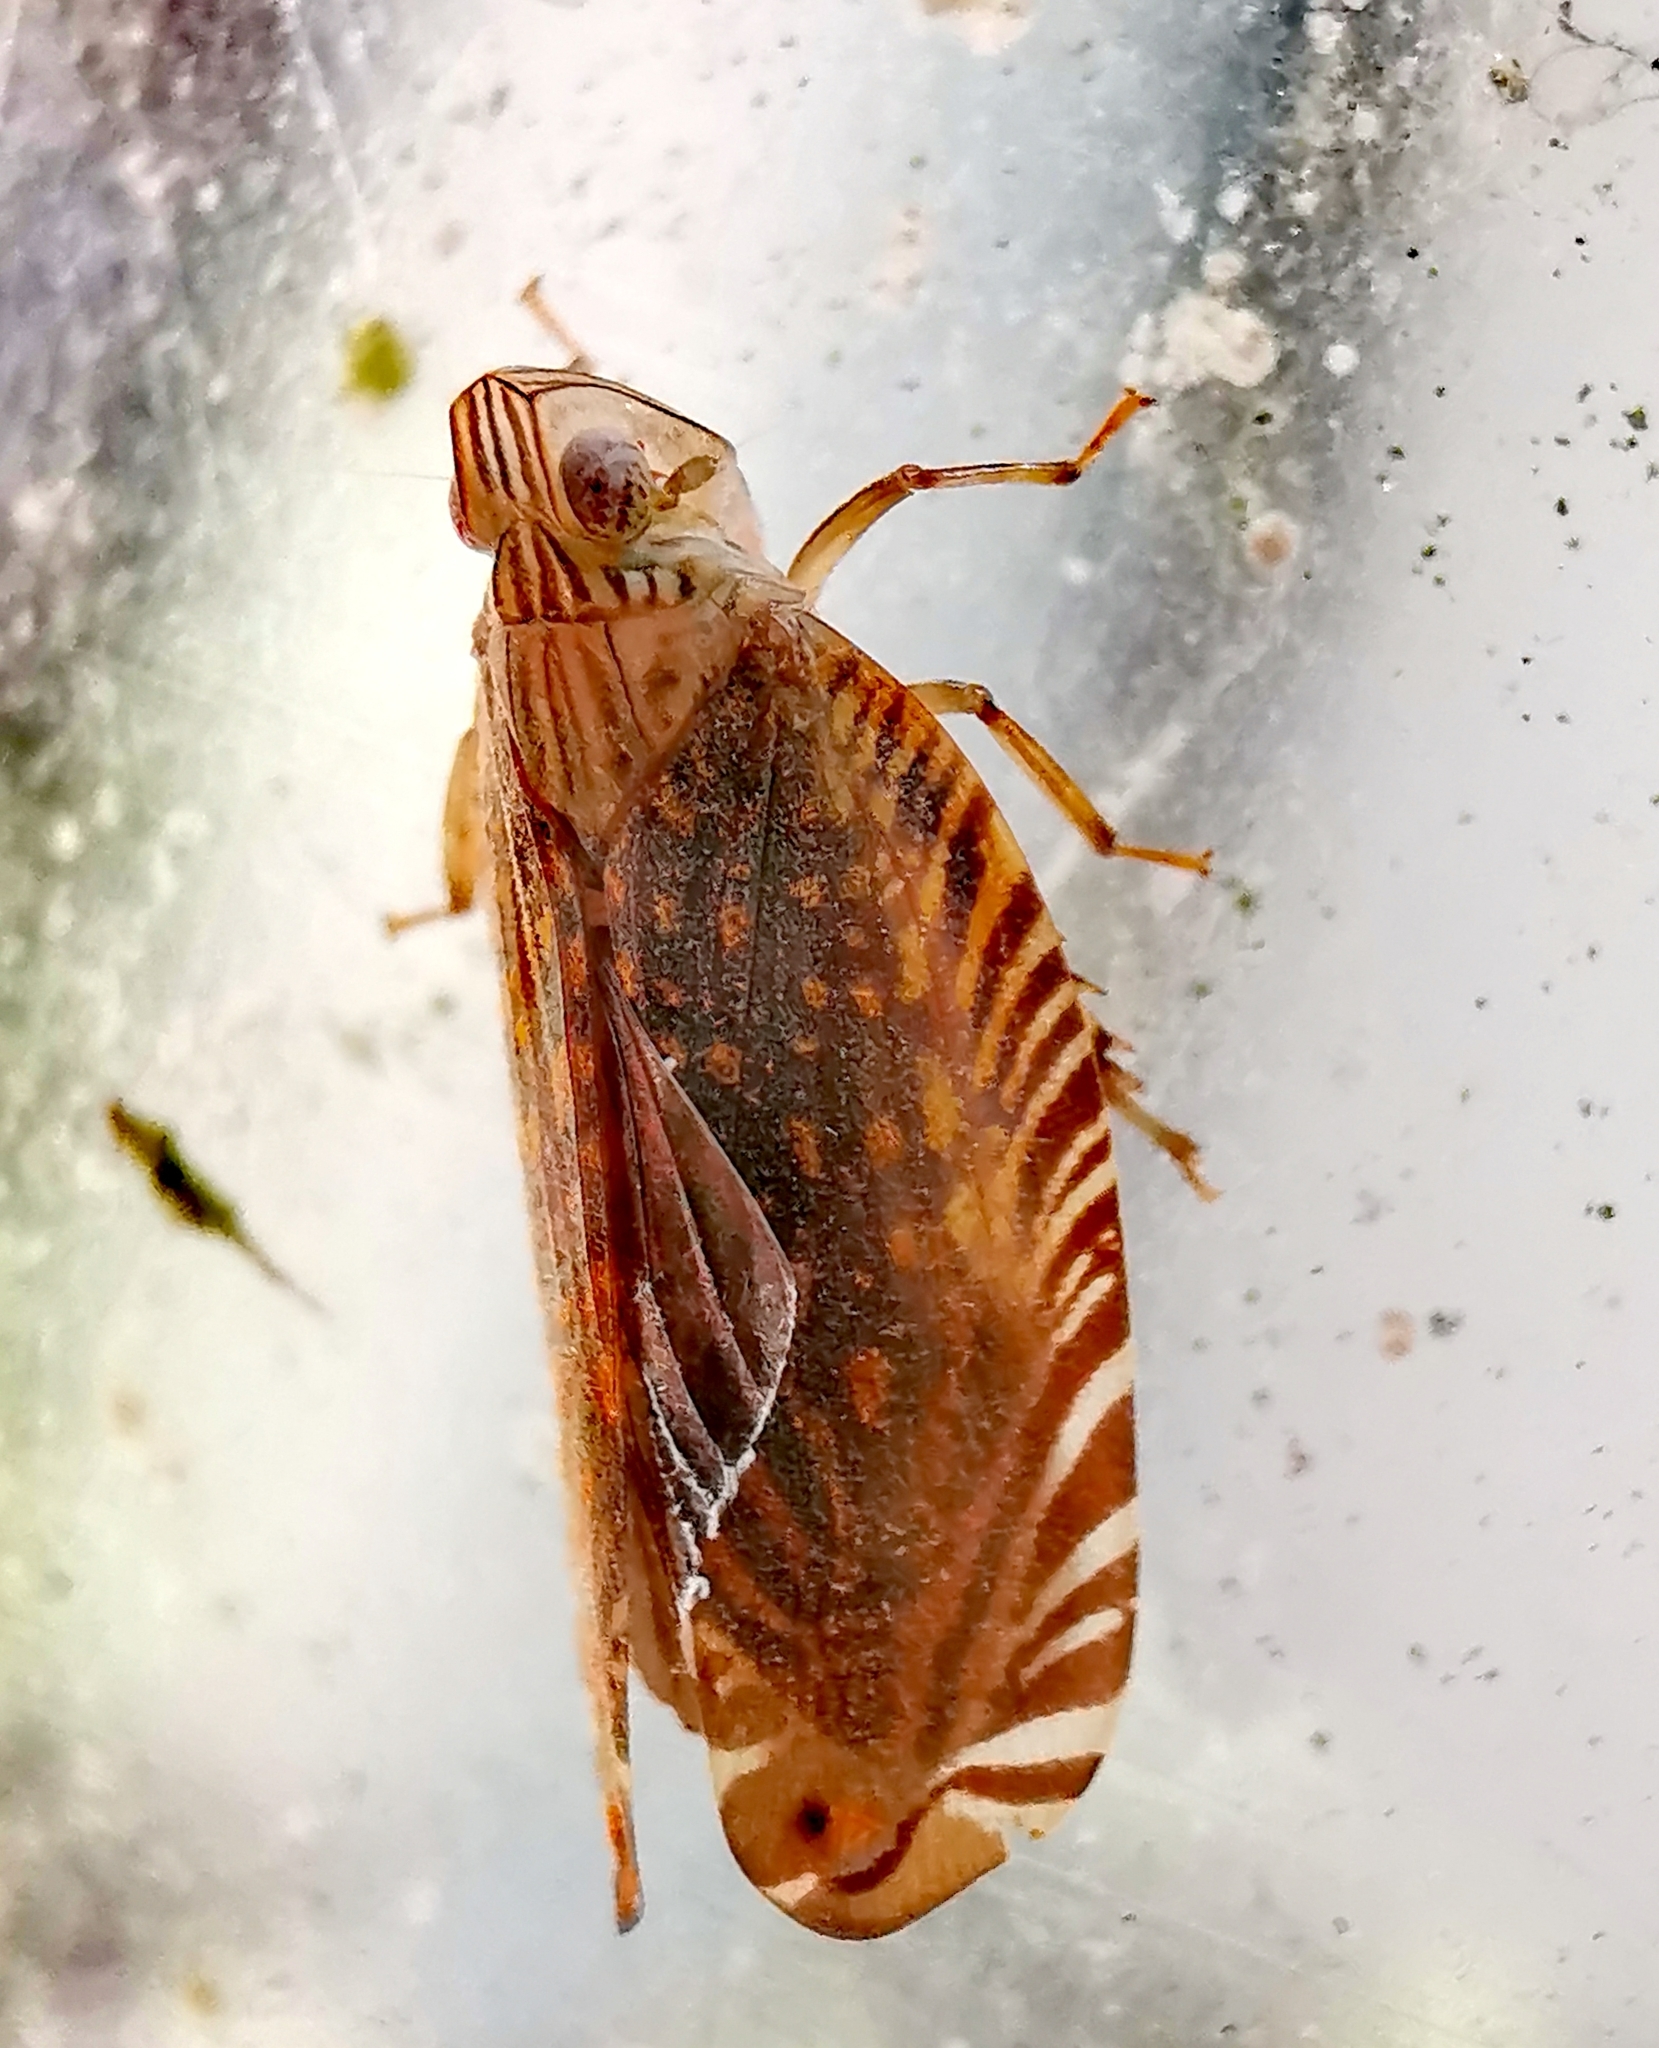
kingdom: Animalia
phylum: Arthropoda
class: Insecta
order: Hemiptera
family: Lophopidae
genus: Apia
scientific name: Apia lineolata
